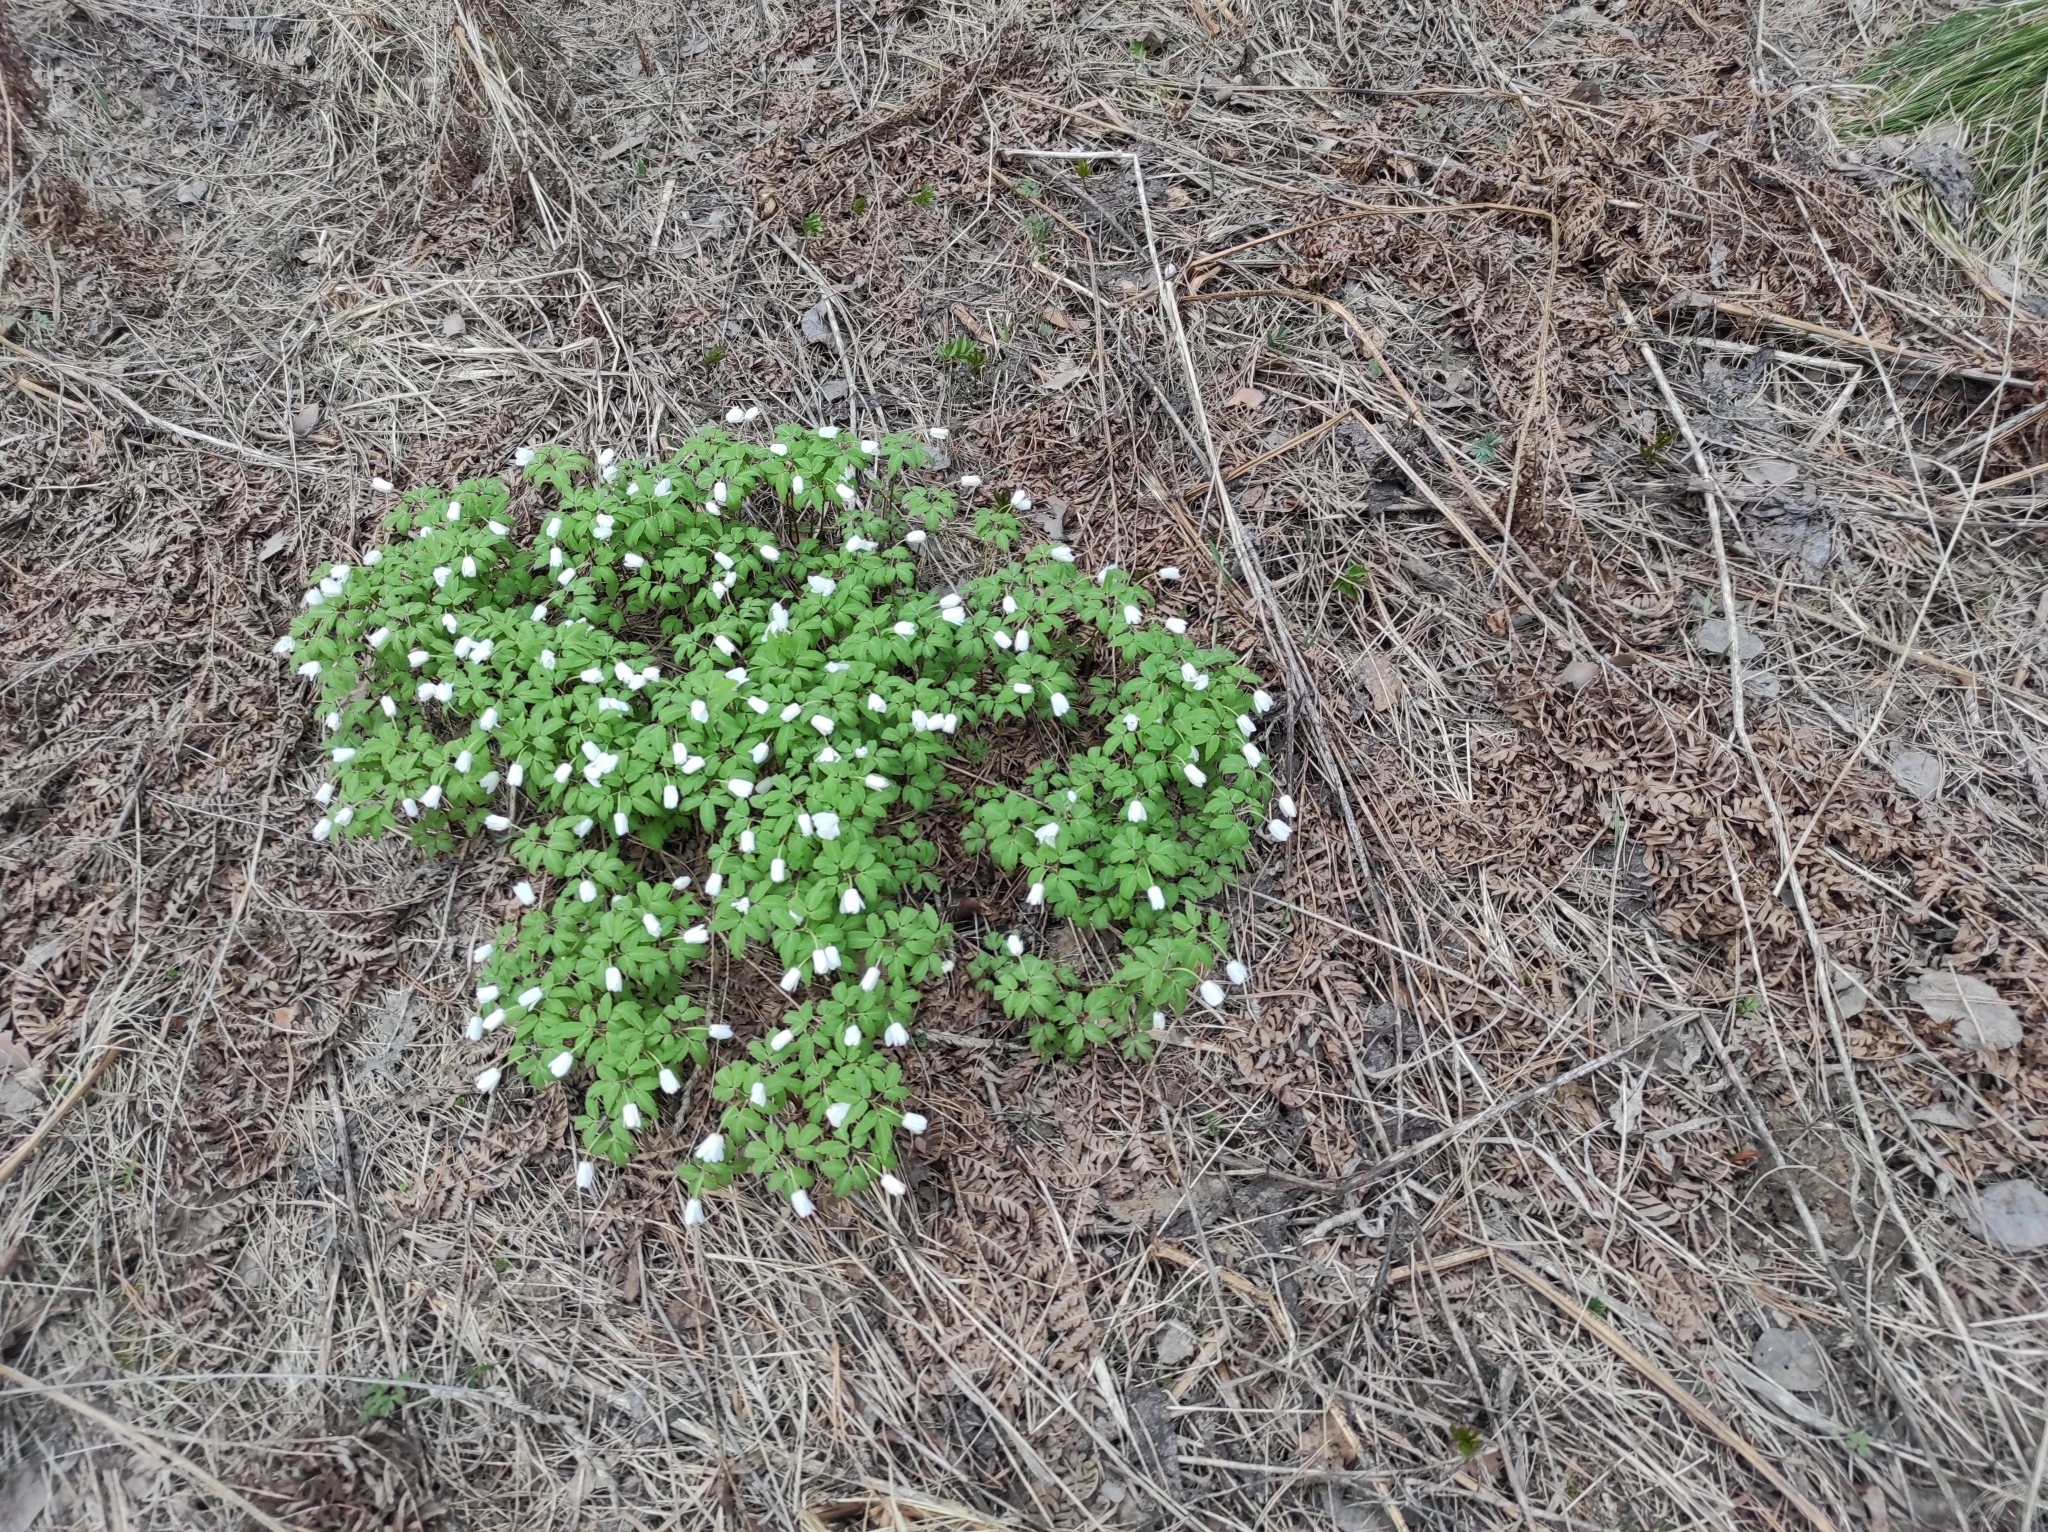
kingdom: Plantae
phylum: Tracheophyta
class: Magnoliopsida
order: Ranunculales
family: Ranunculaceae
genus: Anemone
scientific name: Anemone altaica
